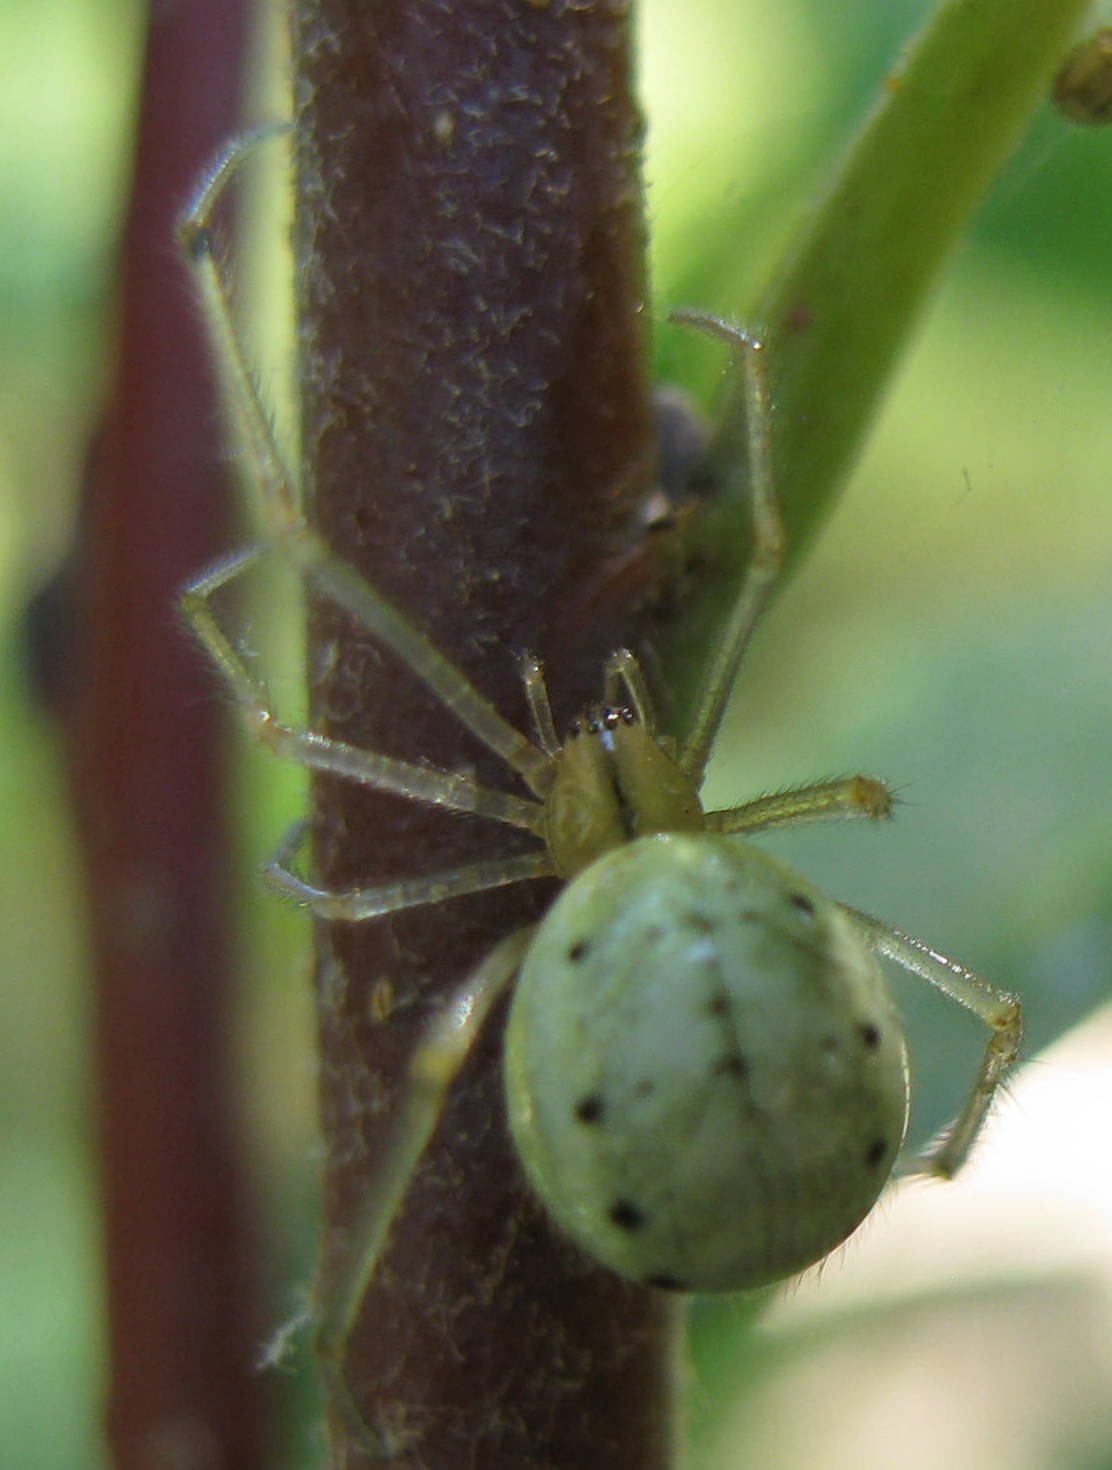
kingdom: Animalia
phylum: Arthropoda
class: Arachnida
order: Araneae
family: Theridiidae
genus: Enoplognatha
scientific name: Enoplognatha ovata
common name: Common candy-striped spider
